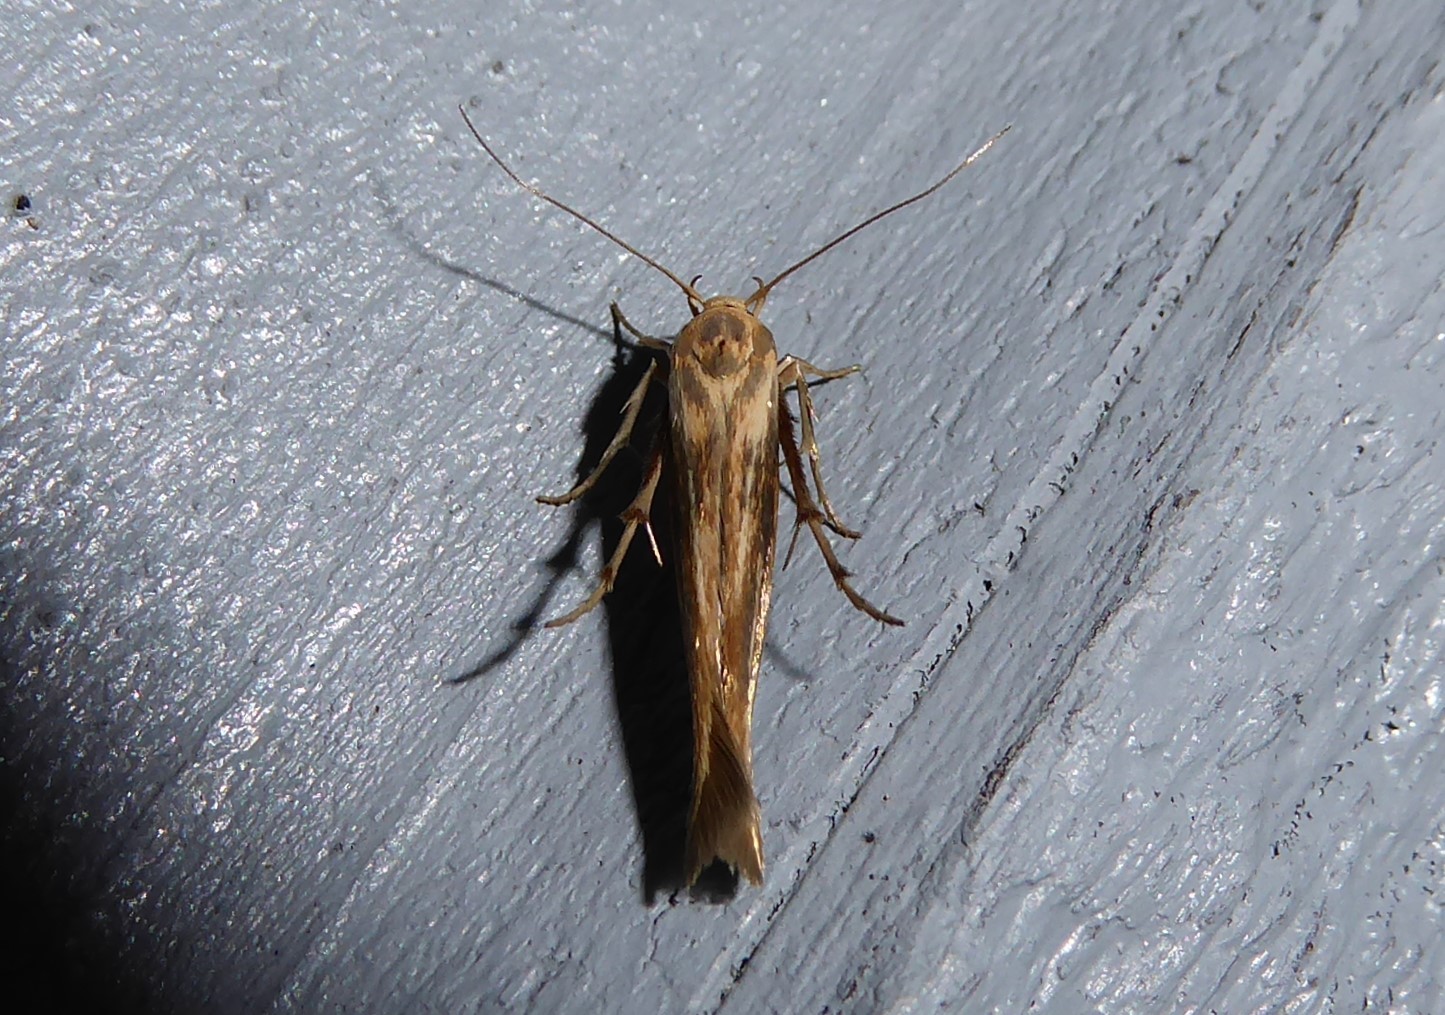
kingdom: Animalia
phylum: Arthropoda
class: Insecta
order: Lepidoptera
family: Stathmopodidae
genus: Stathmopoda
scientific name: Stathmopoda aposema
